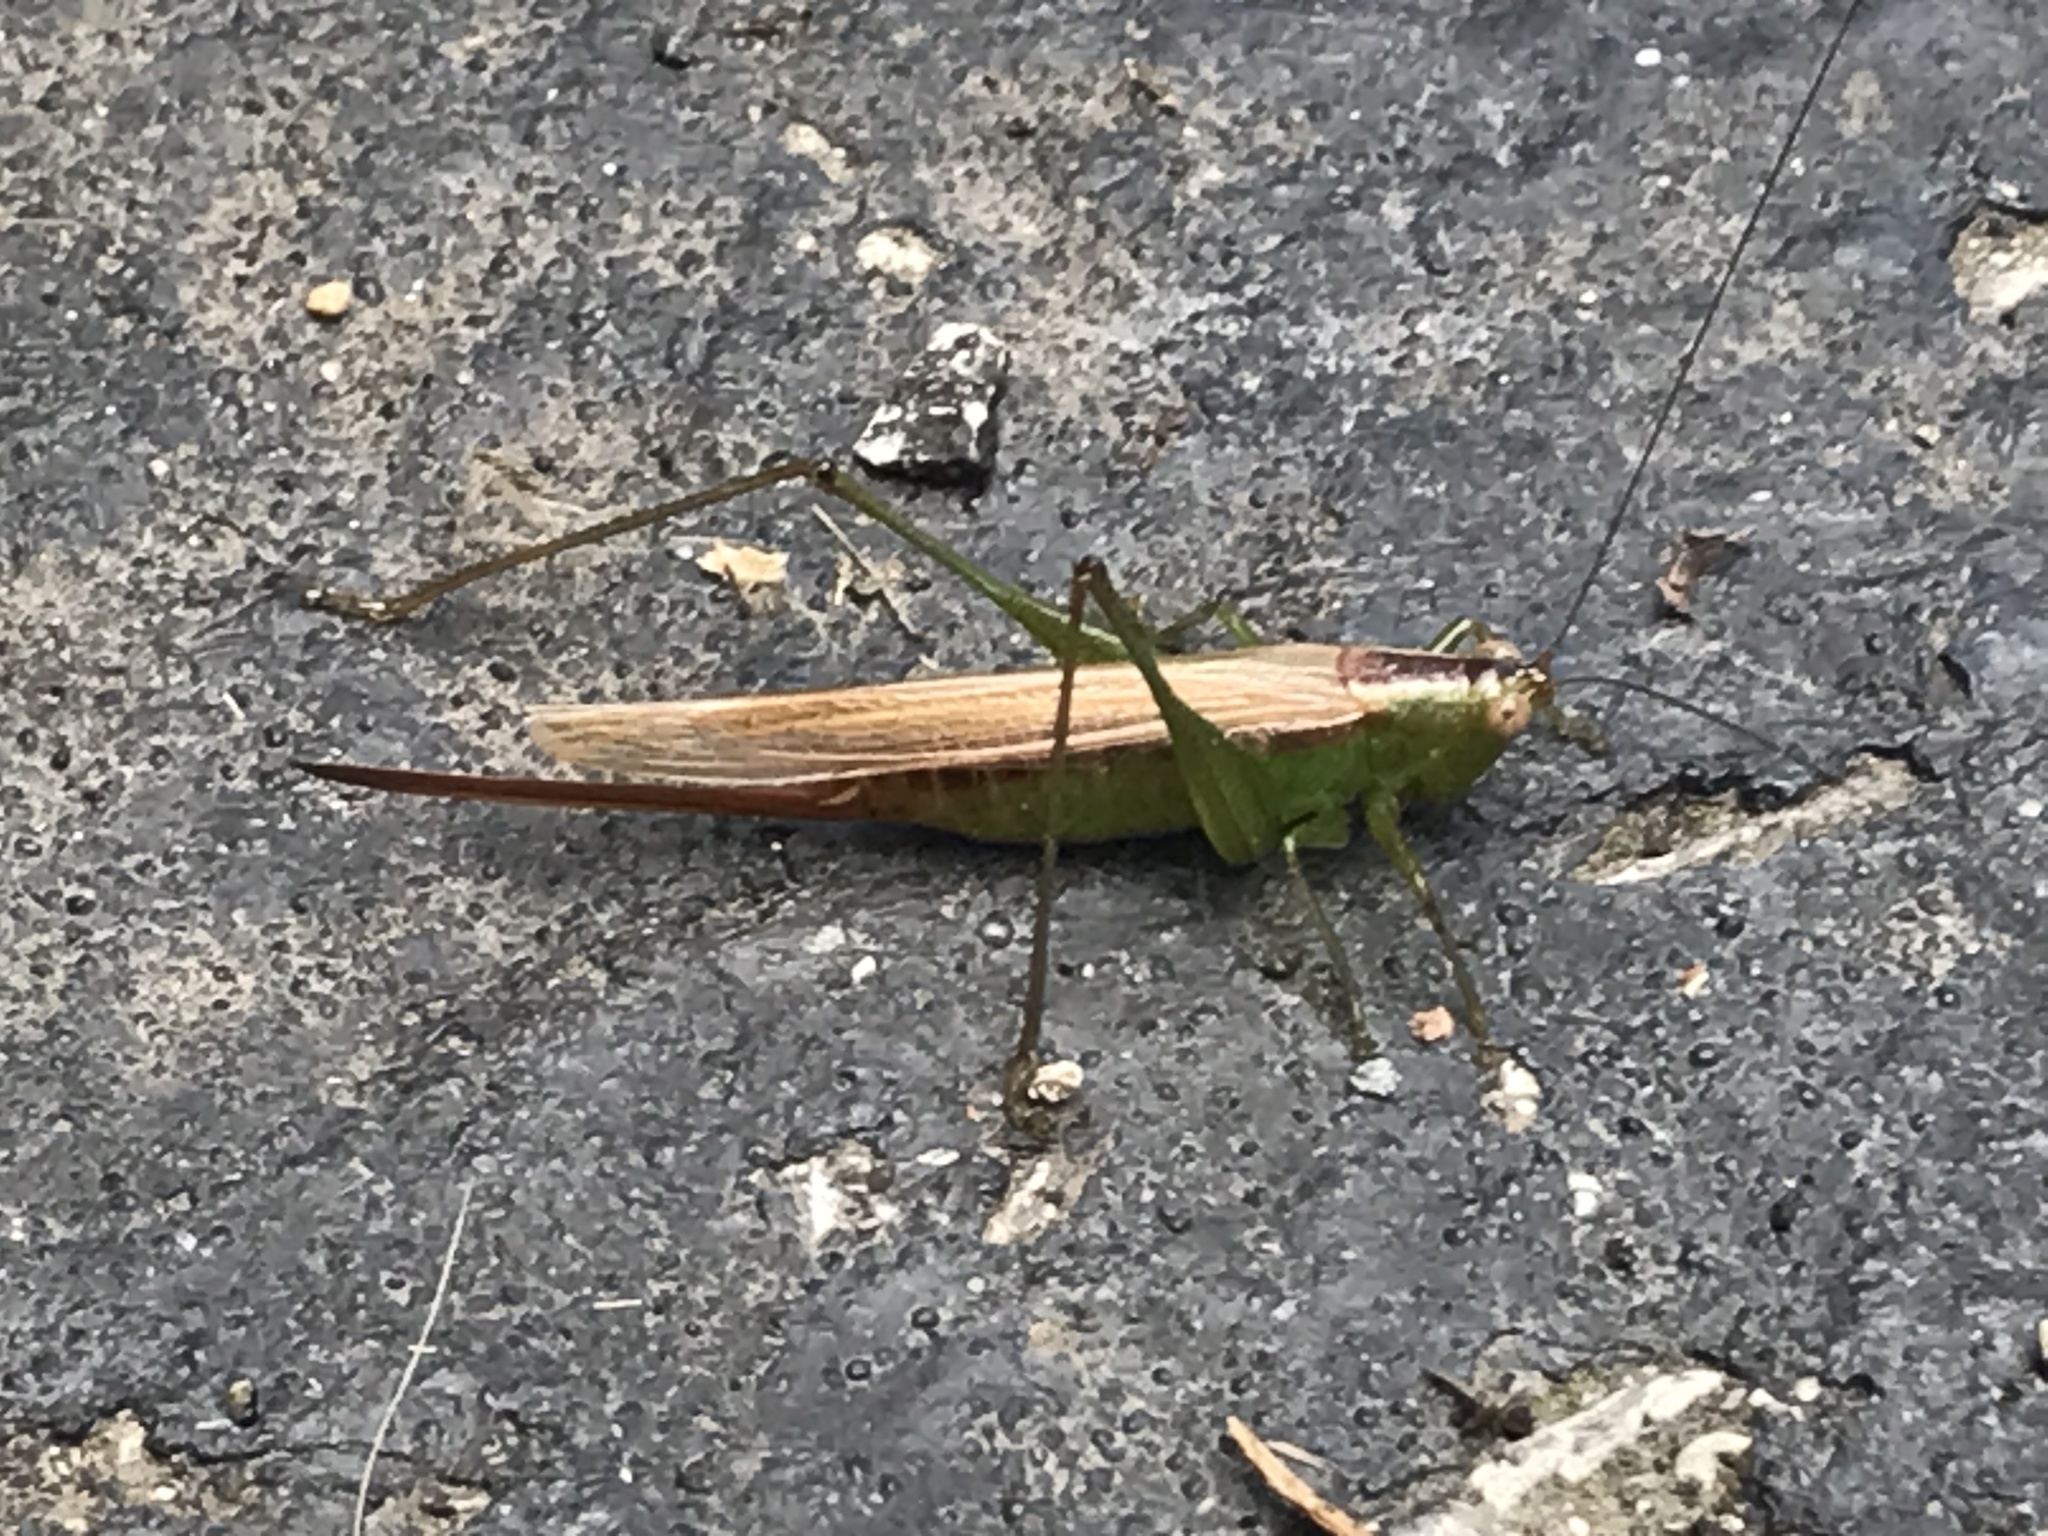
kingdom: Animalia
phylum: Arthropoda
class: Insecta
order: Orthoptera
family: Tettigoniidae
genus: Conocephalus
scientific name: Conocephalus fasciatus
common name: Slender meadow katydid
